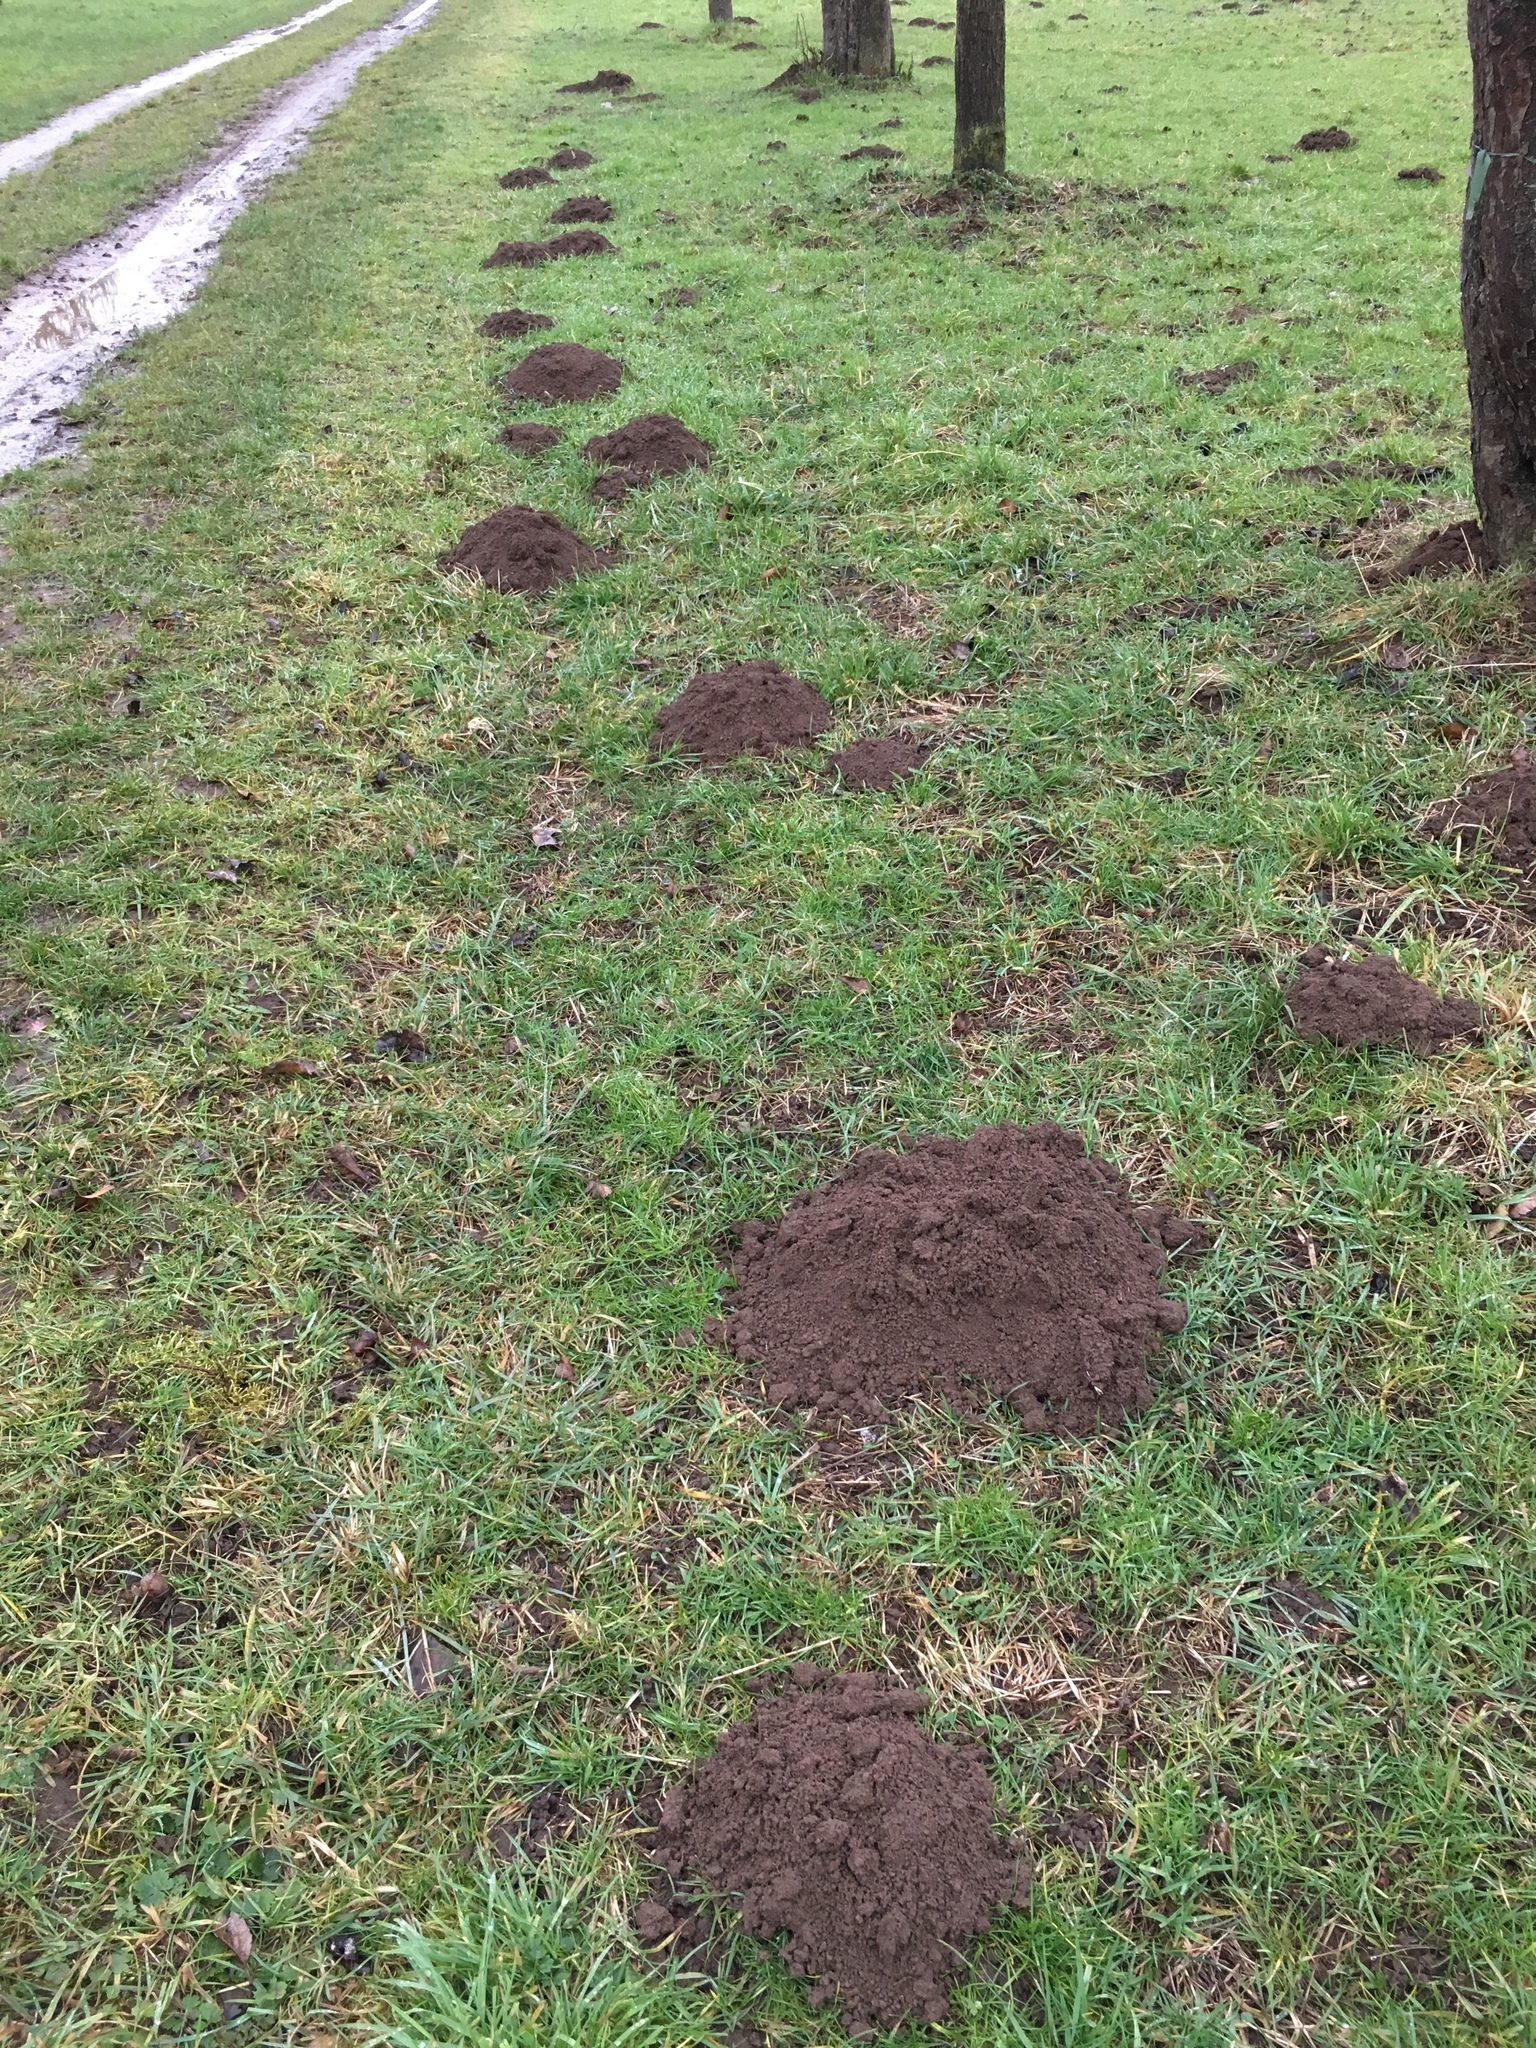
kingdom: Animalia
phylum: Chordata
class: Mammalia
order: Soricomorpha
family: Talpidae
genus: Talpa
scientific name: Talpa europaea
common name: European mole
